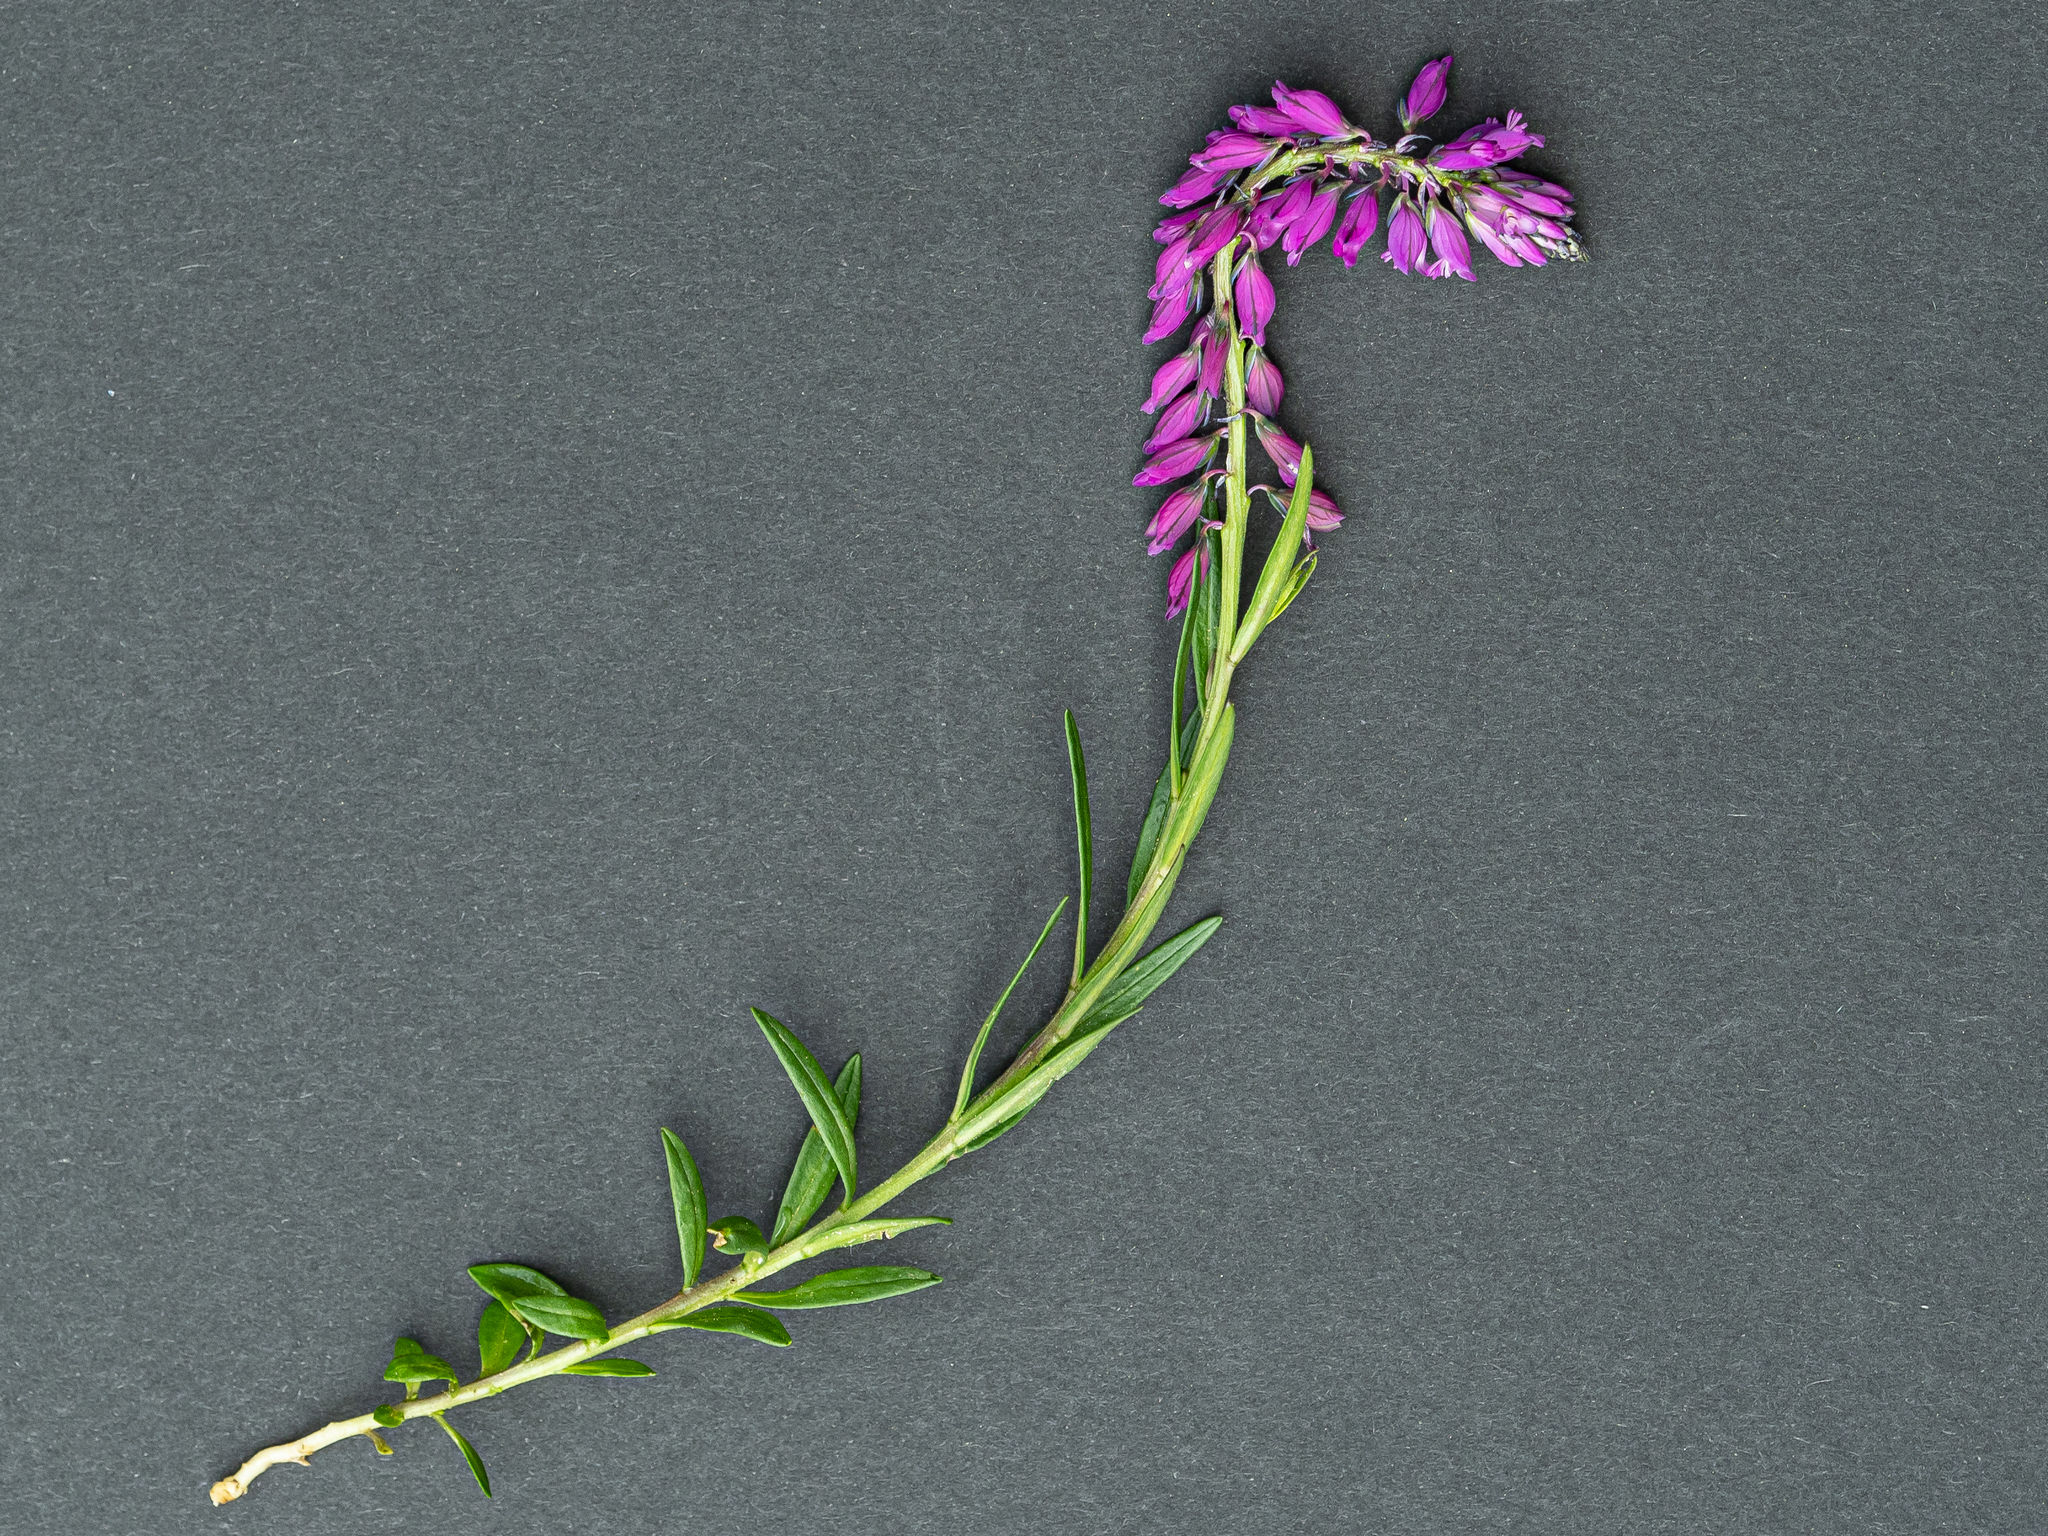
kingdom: Plantae
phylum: Tracheophyta
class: Magnoliopsida
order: Fabales
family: Polygalaceae
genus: Polygala
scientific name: Polygala comosa
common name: Tufted milkwort
